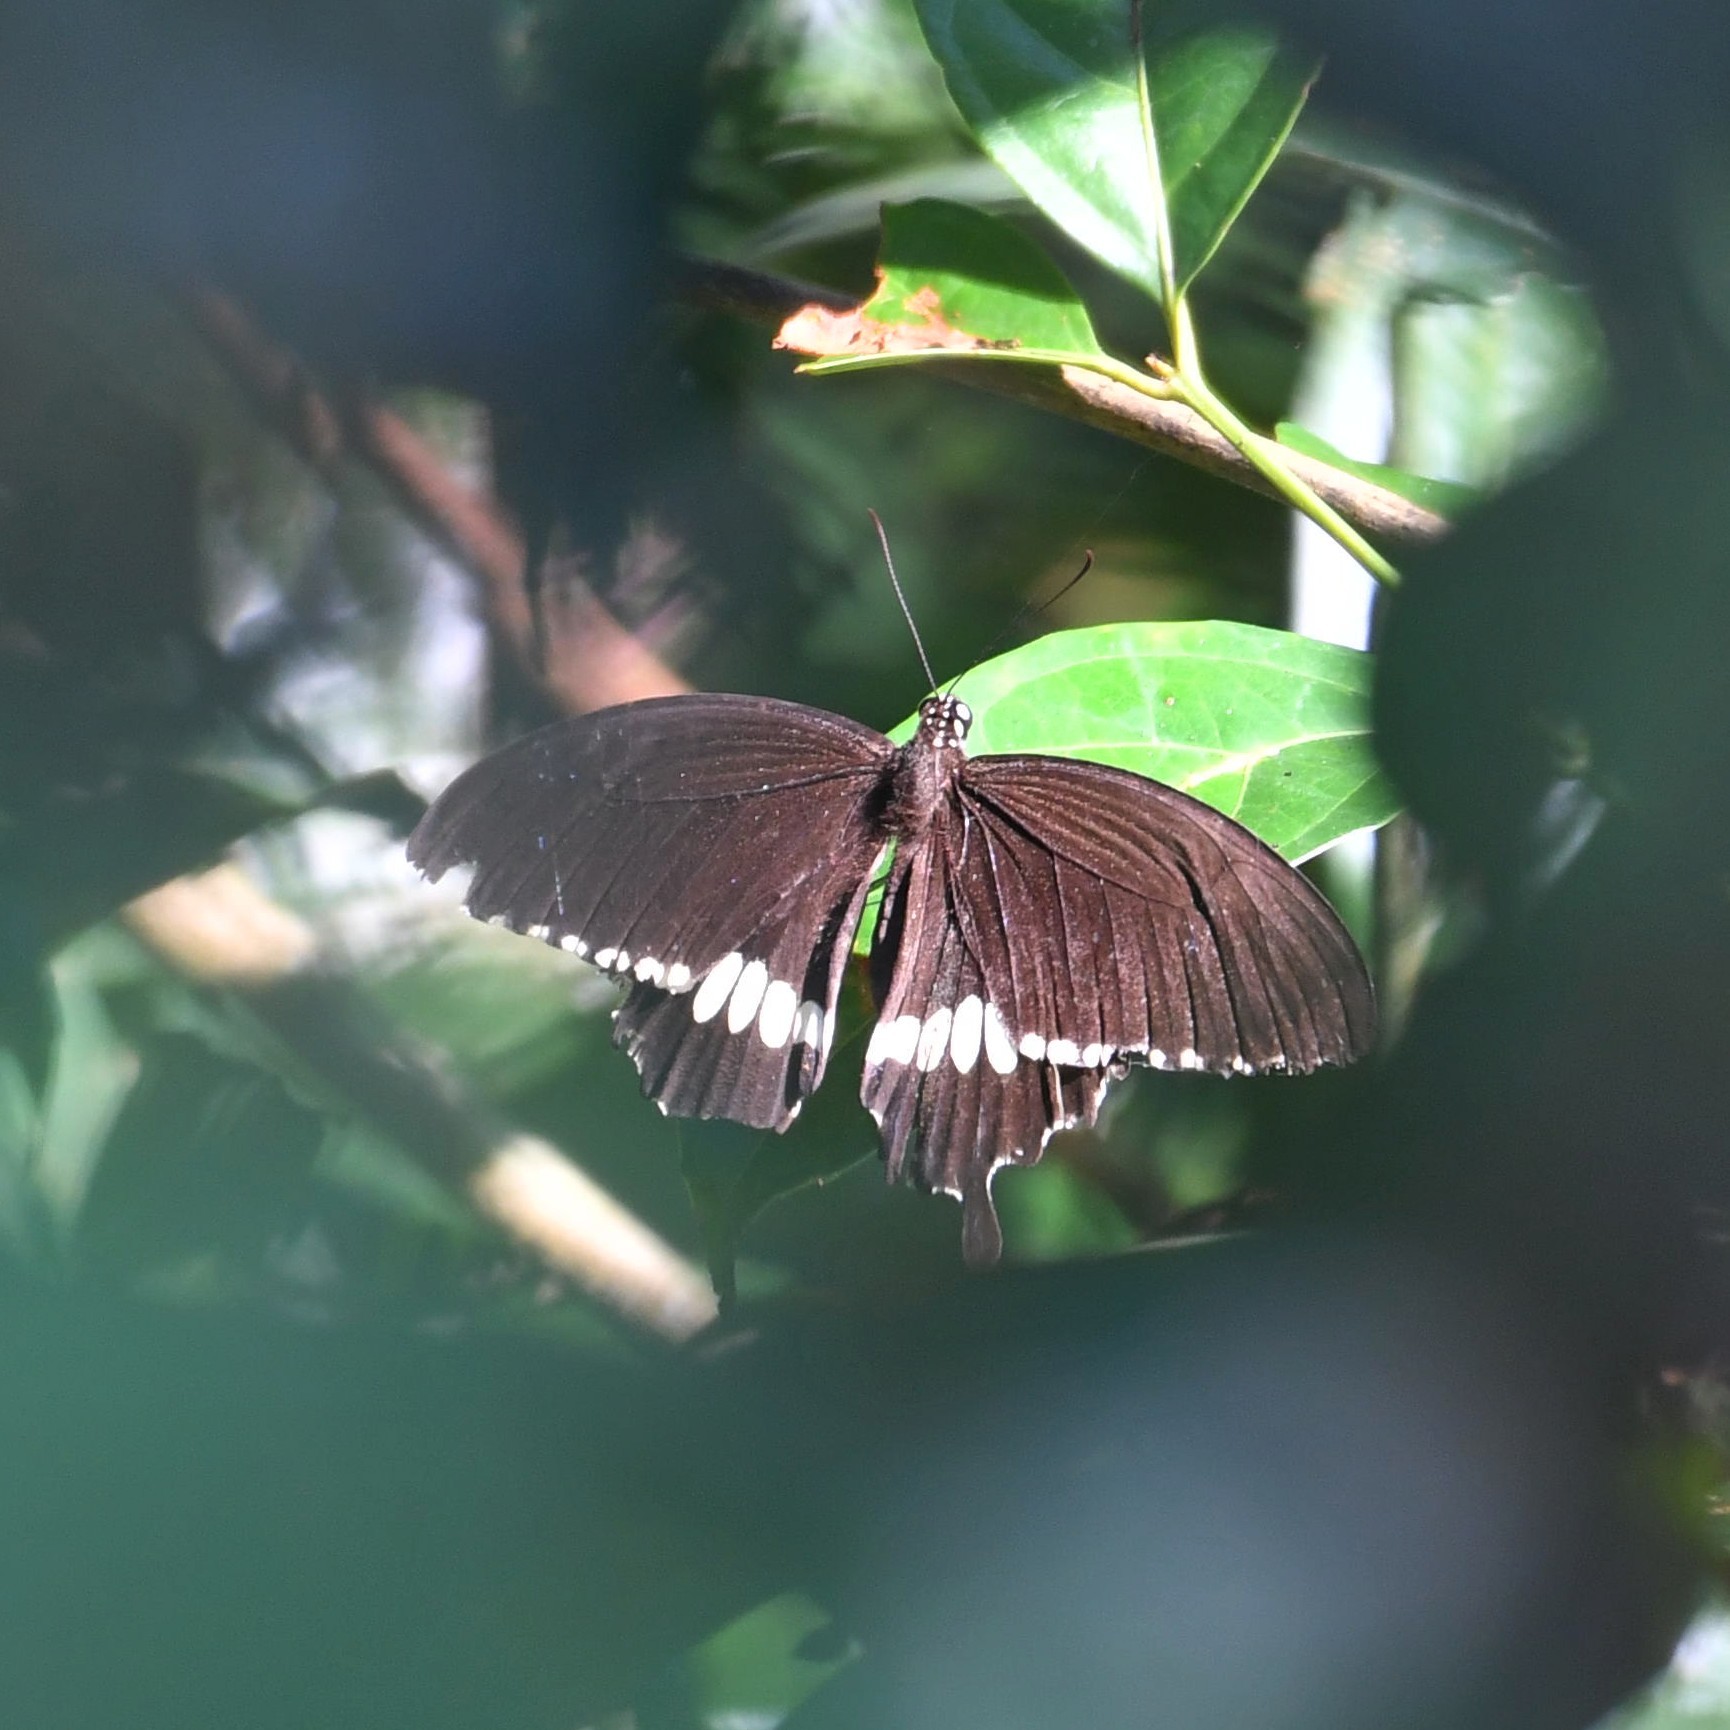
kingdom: Animalia
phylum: Arthropoda
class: Insecta
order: Lepidoptera
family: Papilionidae
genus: Papilio
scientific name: Papilio polytes
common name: Common mormon
